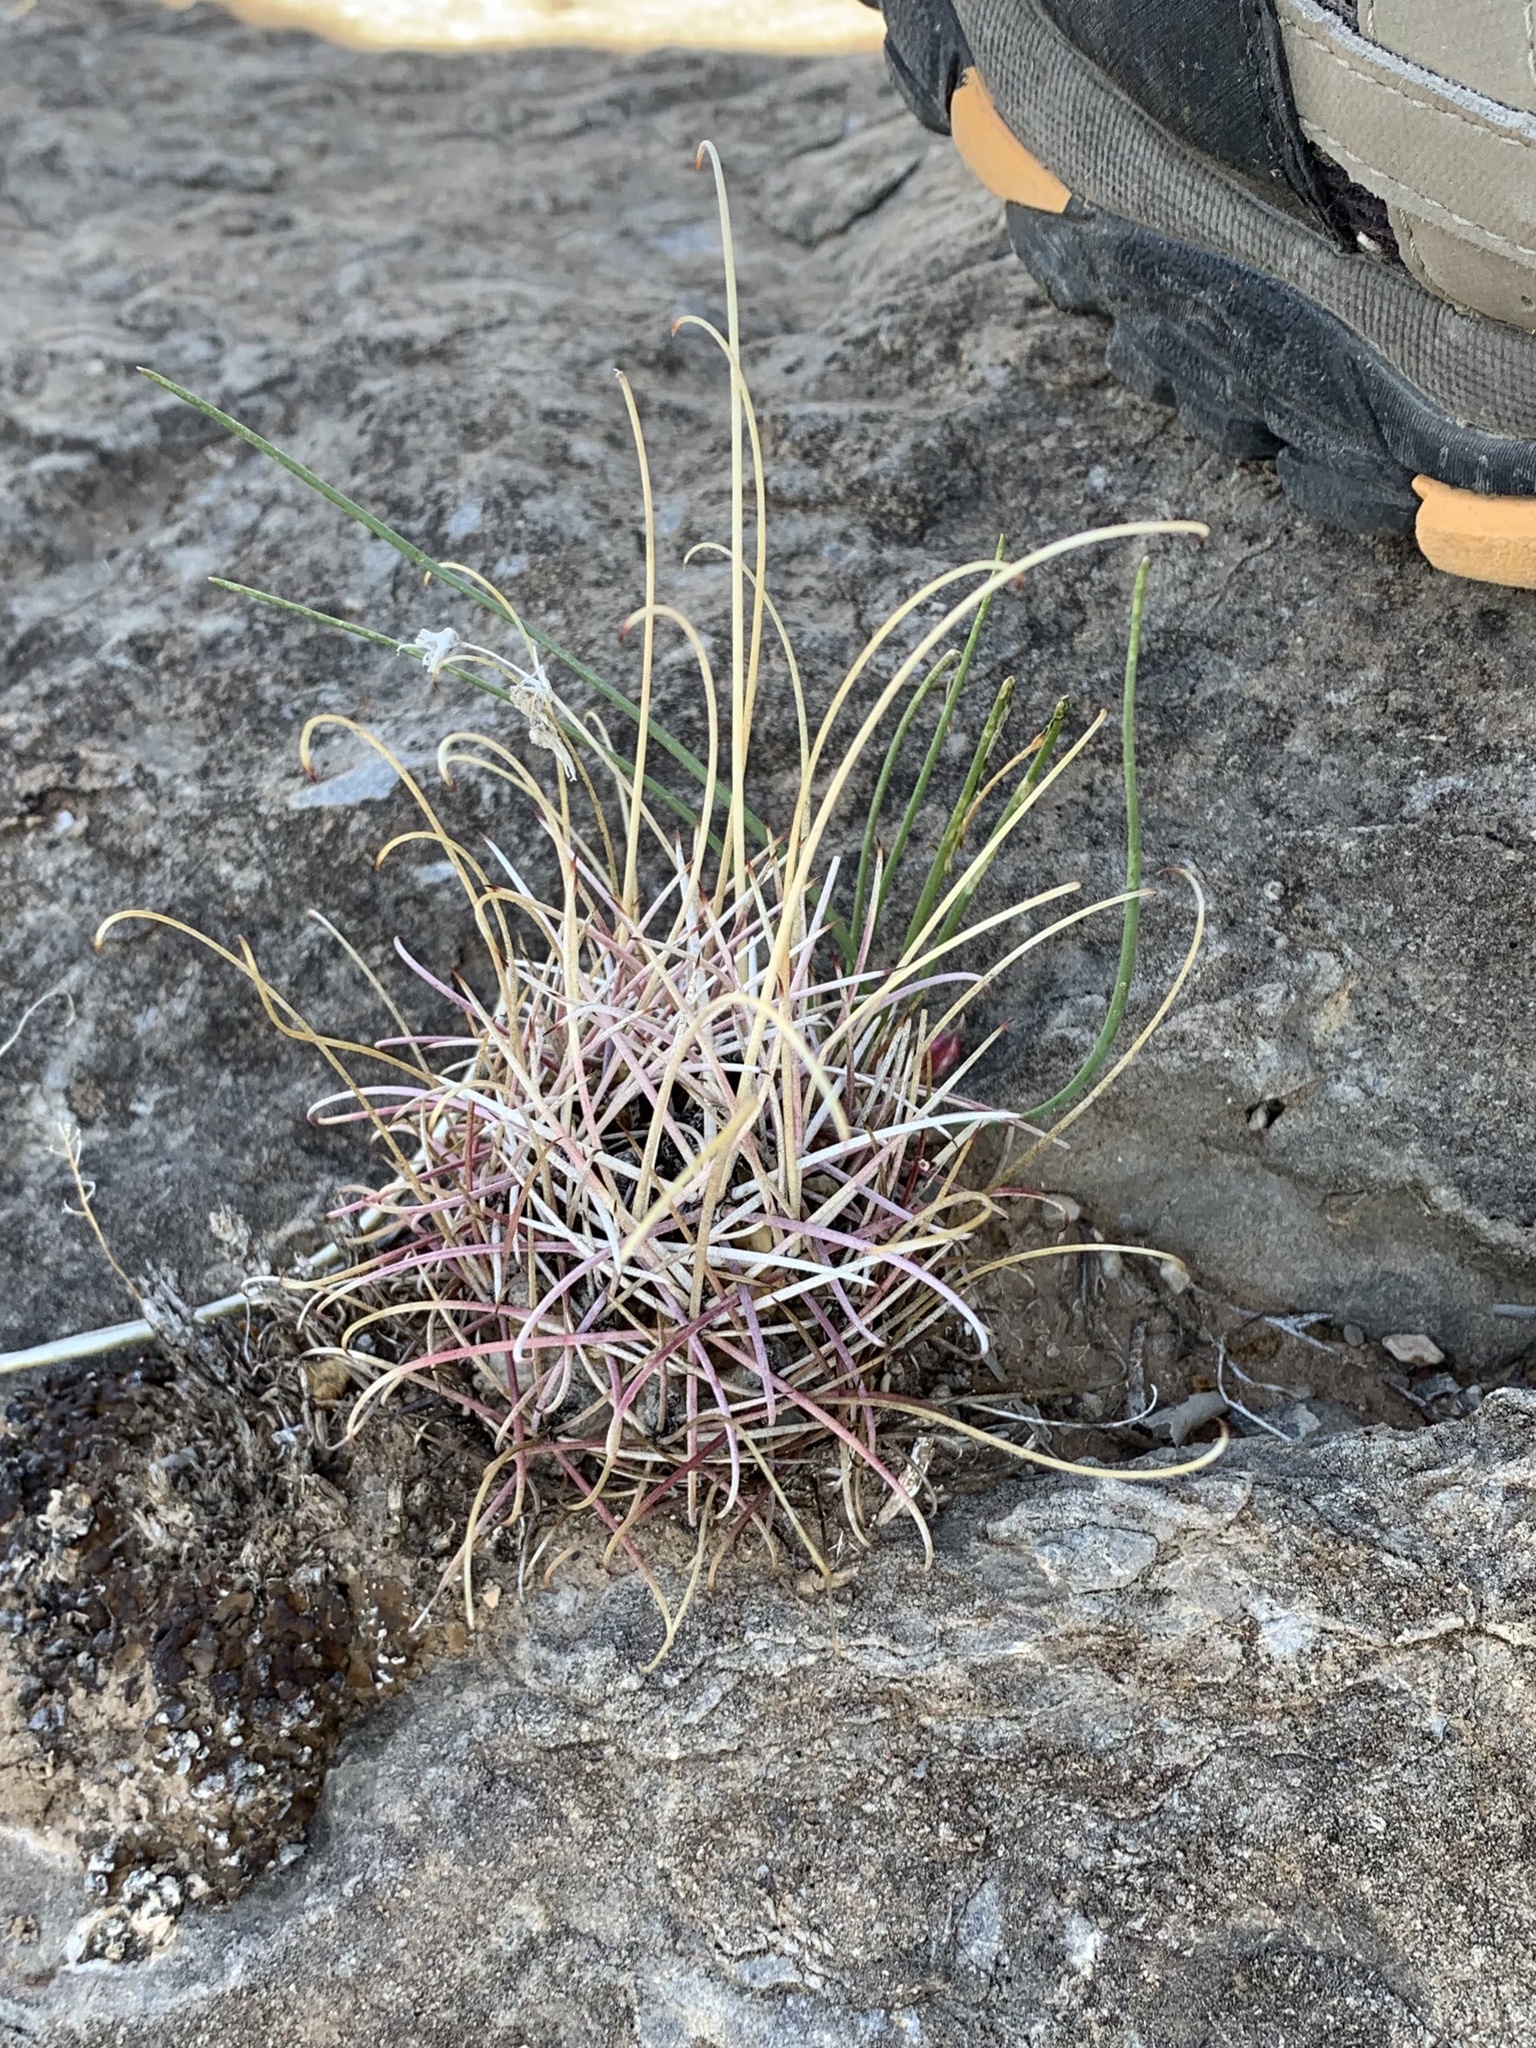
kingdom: Plantae
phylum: Tracheophyta
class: Magnoliopsida
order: Caryophyllales
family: Cactaceae
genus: Ferocactus
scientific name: Ferocactus uncinatus
